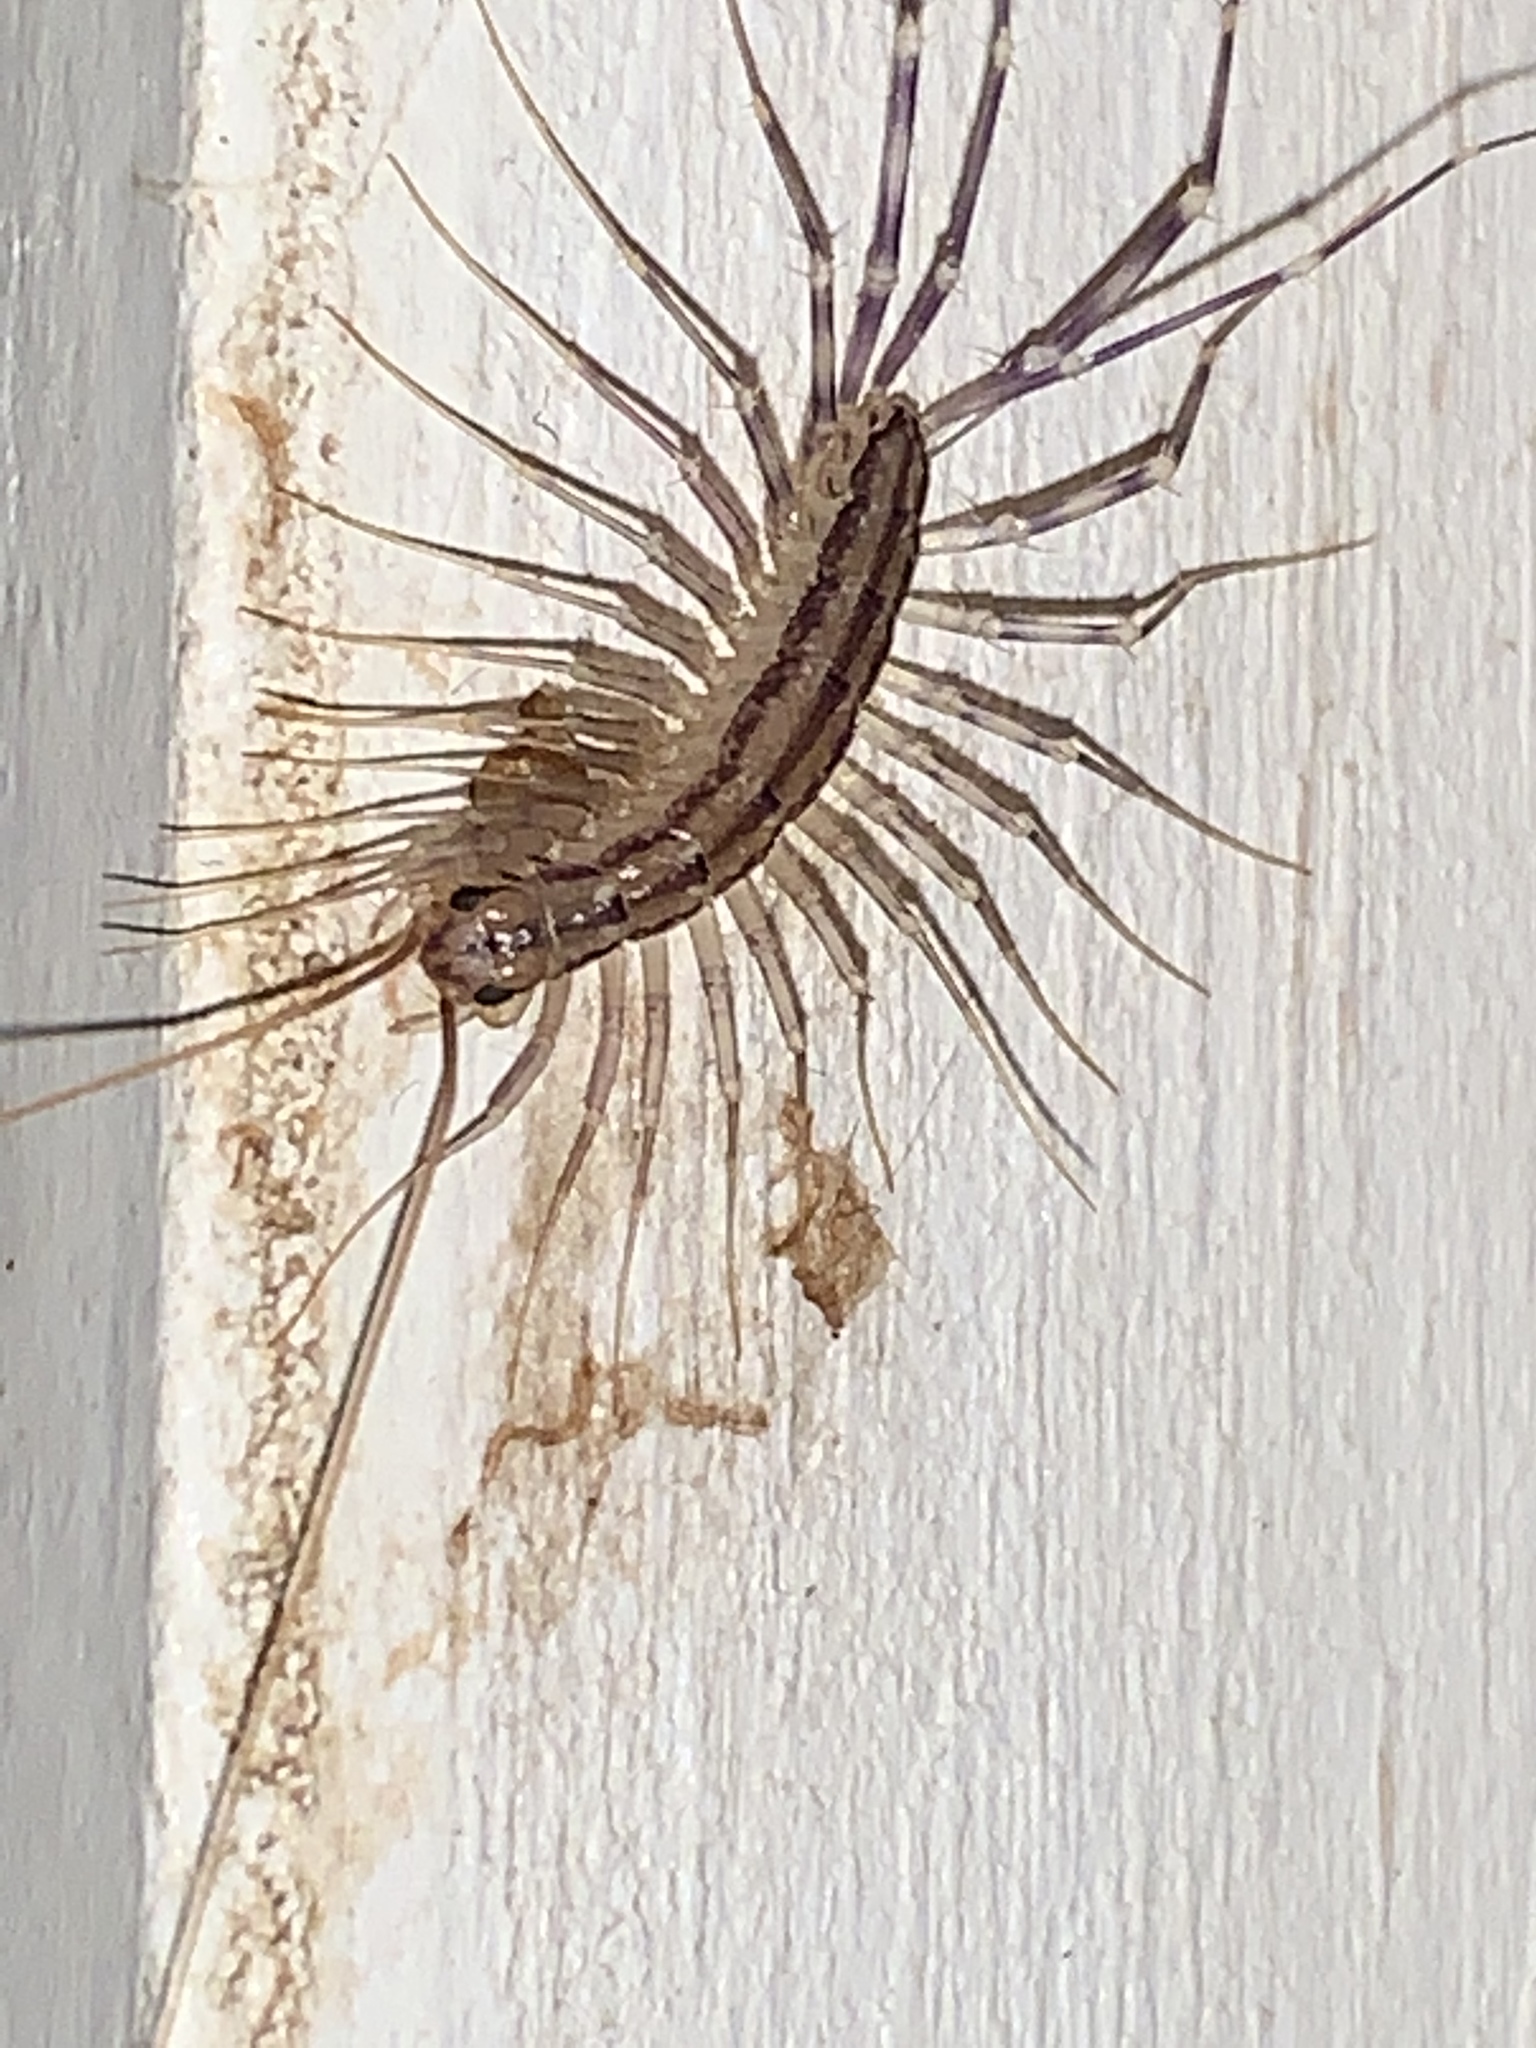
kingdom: Animalia
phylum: Arthropoda
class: Chilopoda
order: Scutigeromorpha
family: Scutigeridae
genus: Scutigera
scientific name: Scutigera coleoptrata
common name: House centipede
